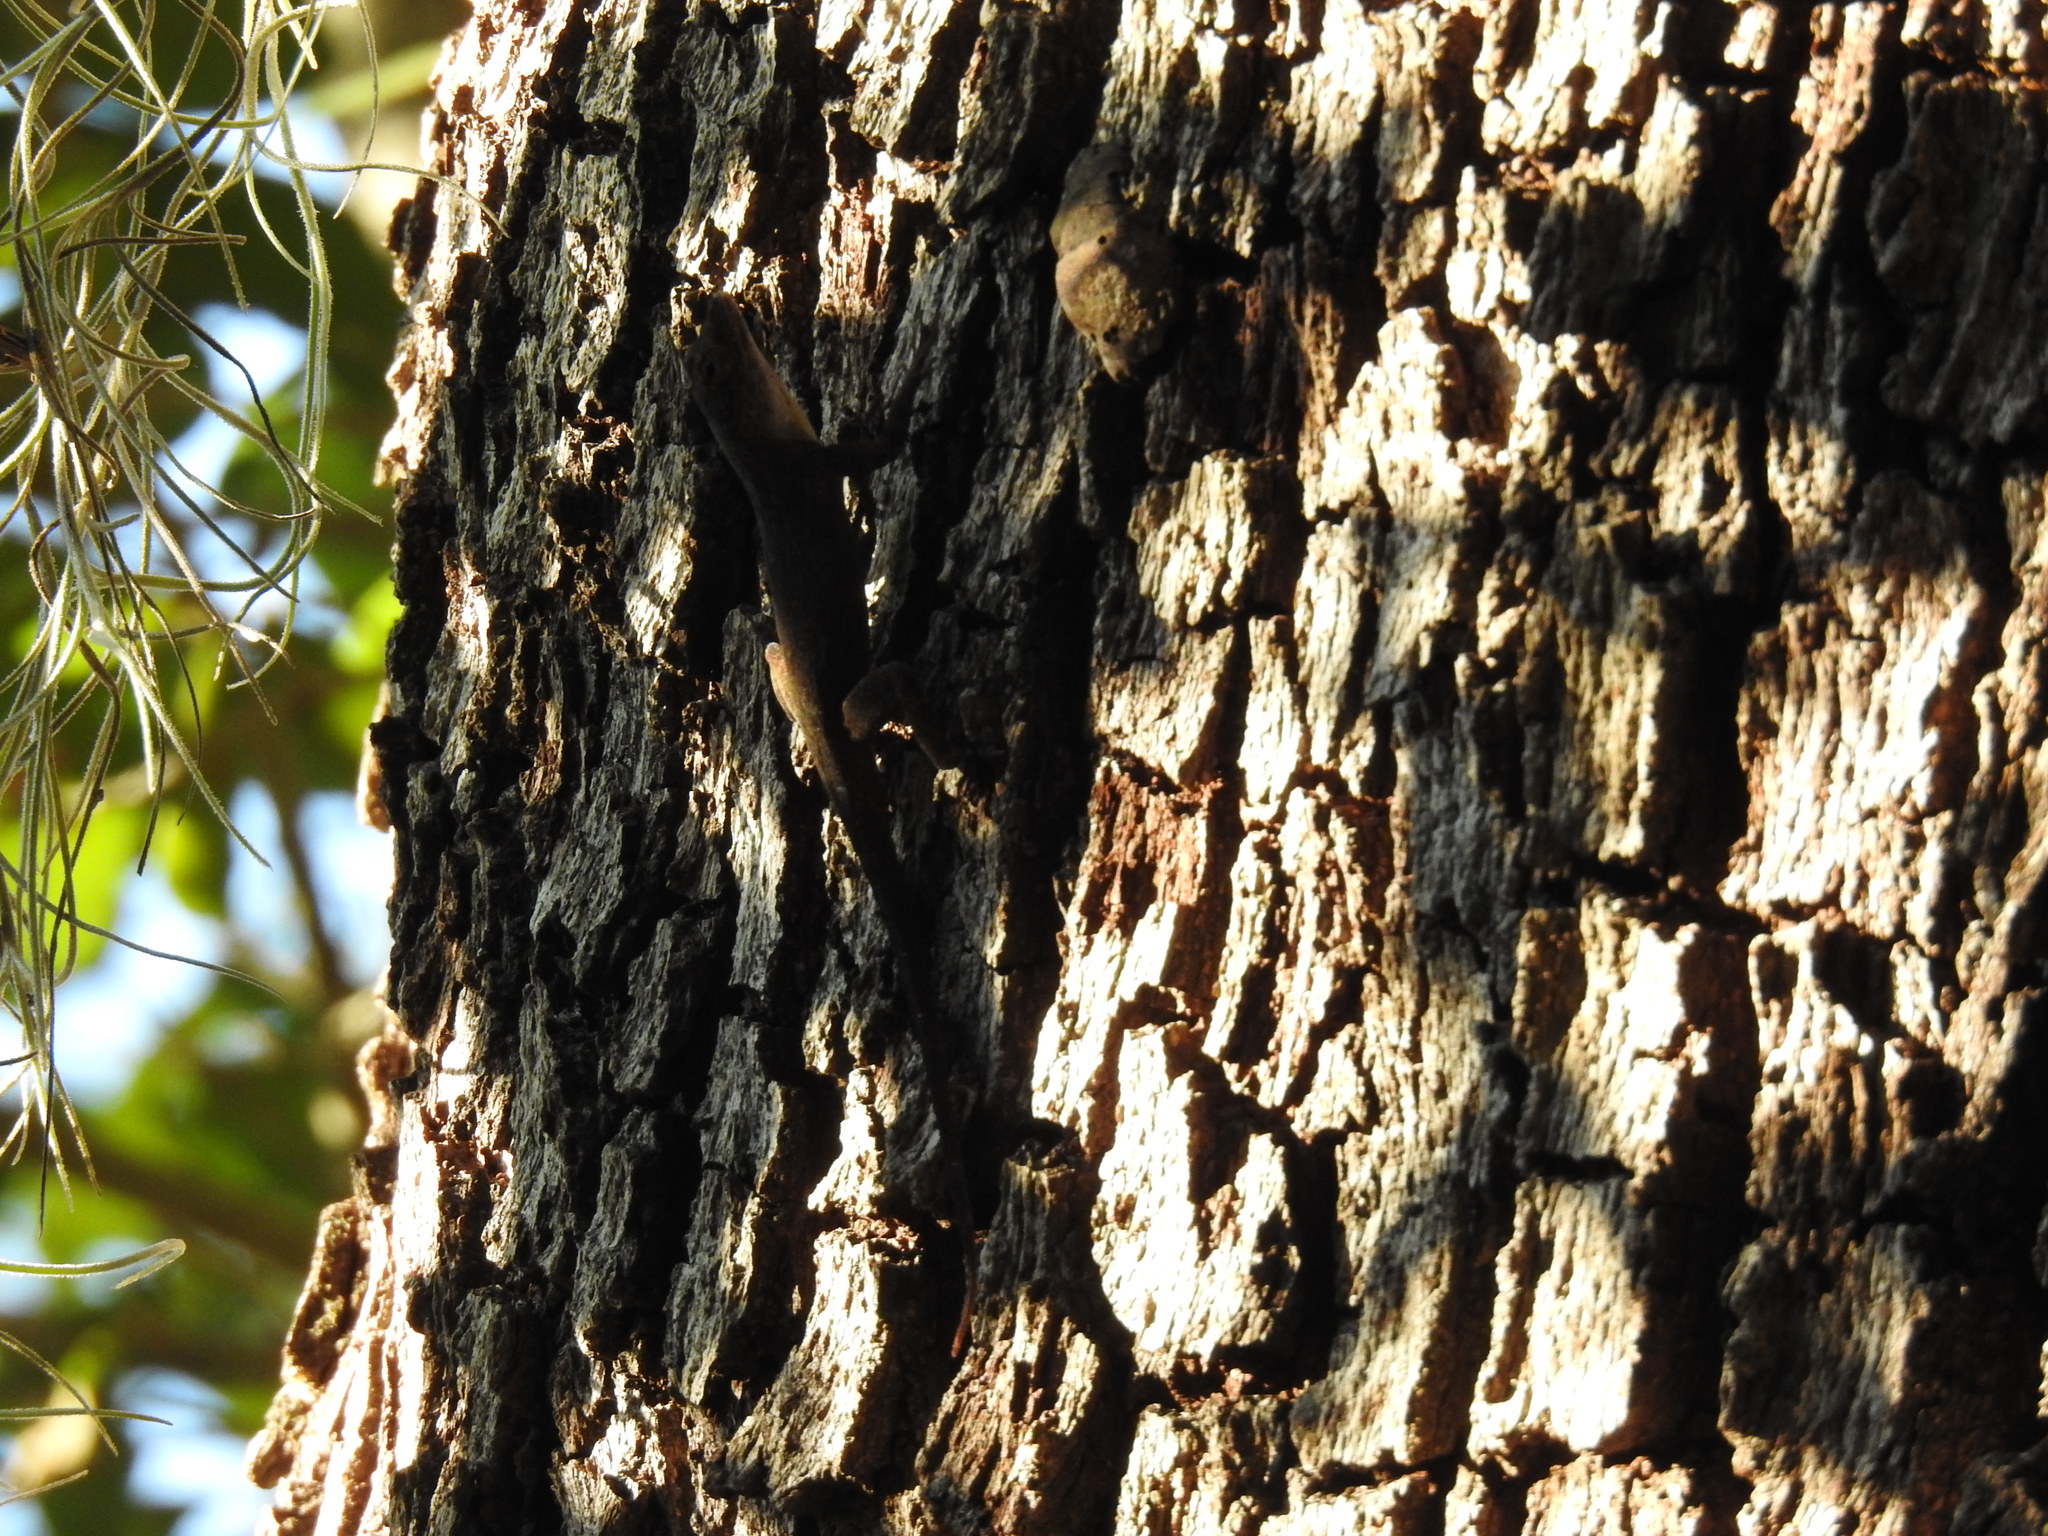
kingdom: Animalia
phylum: Chordata
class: Squamata
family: Dactyloidae
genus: Anolis
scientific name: Anolis distichus
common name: Bark anole
